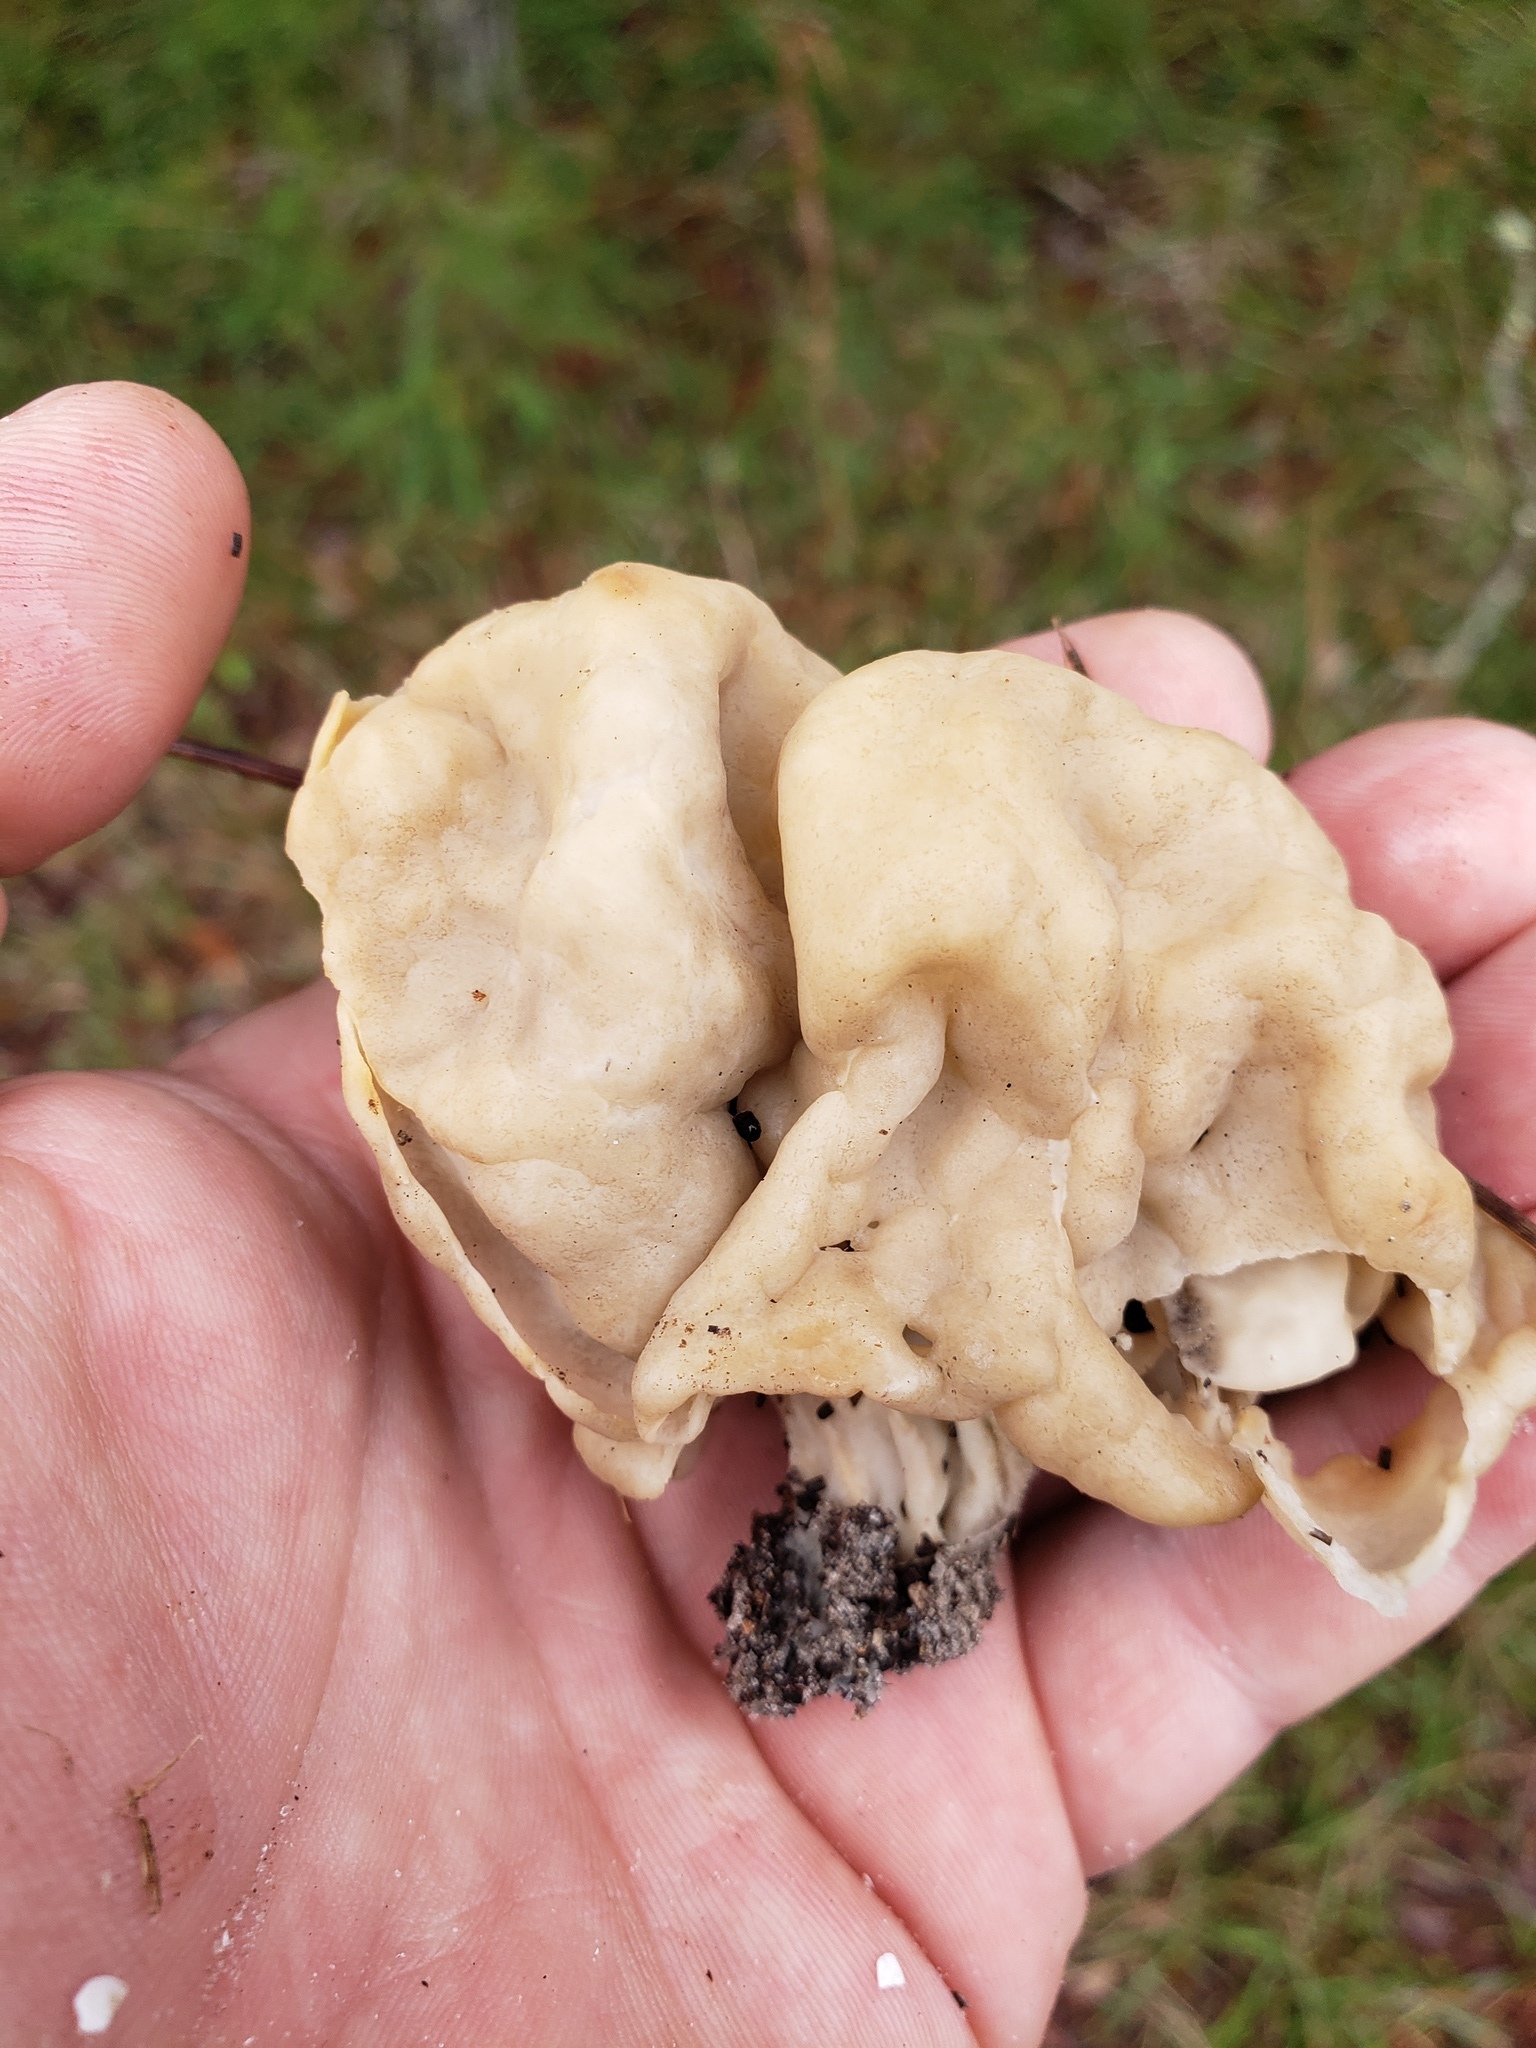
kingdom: Fungi
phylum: Ascomycota
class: Pezizomycetes
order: Pezizales
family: Helvellaceae
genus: Helvella
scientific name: Helvella crispa
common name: White saddle
